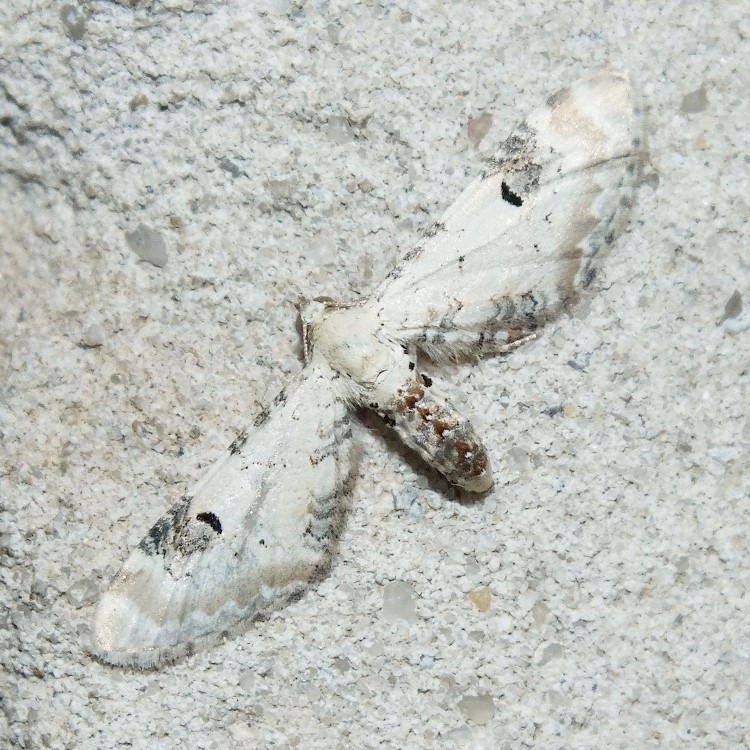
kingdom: Animalia
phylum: Arthropoda
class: Insecta
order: Lepidoptera
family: Geometridae
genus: Eupithecia
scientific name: Eupithecia centaureata
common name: Lime-speck pug
